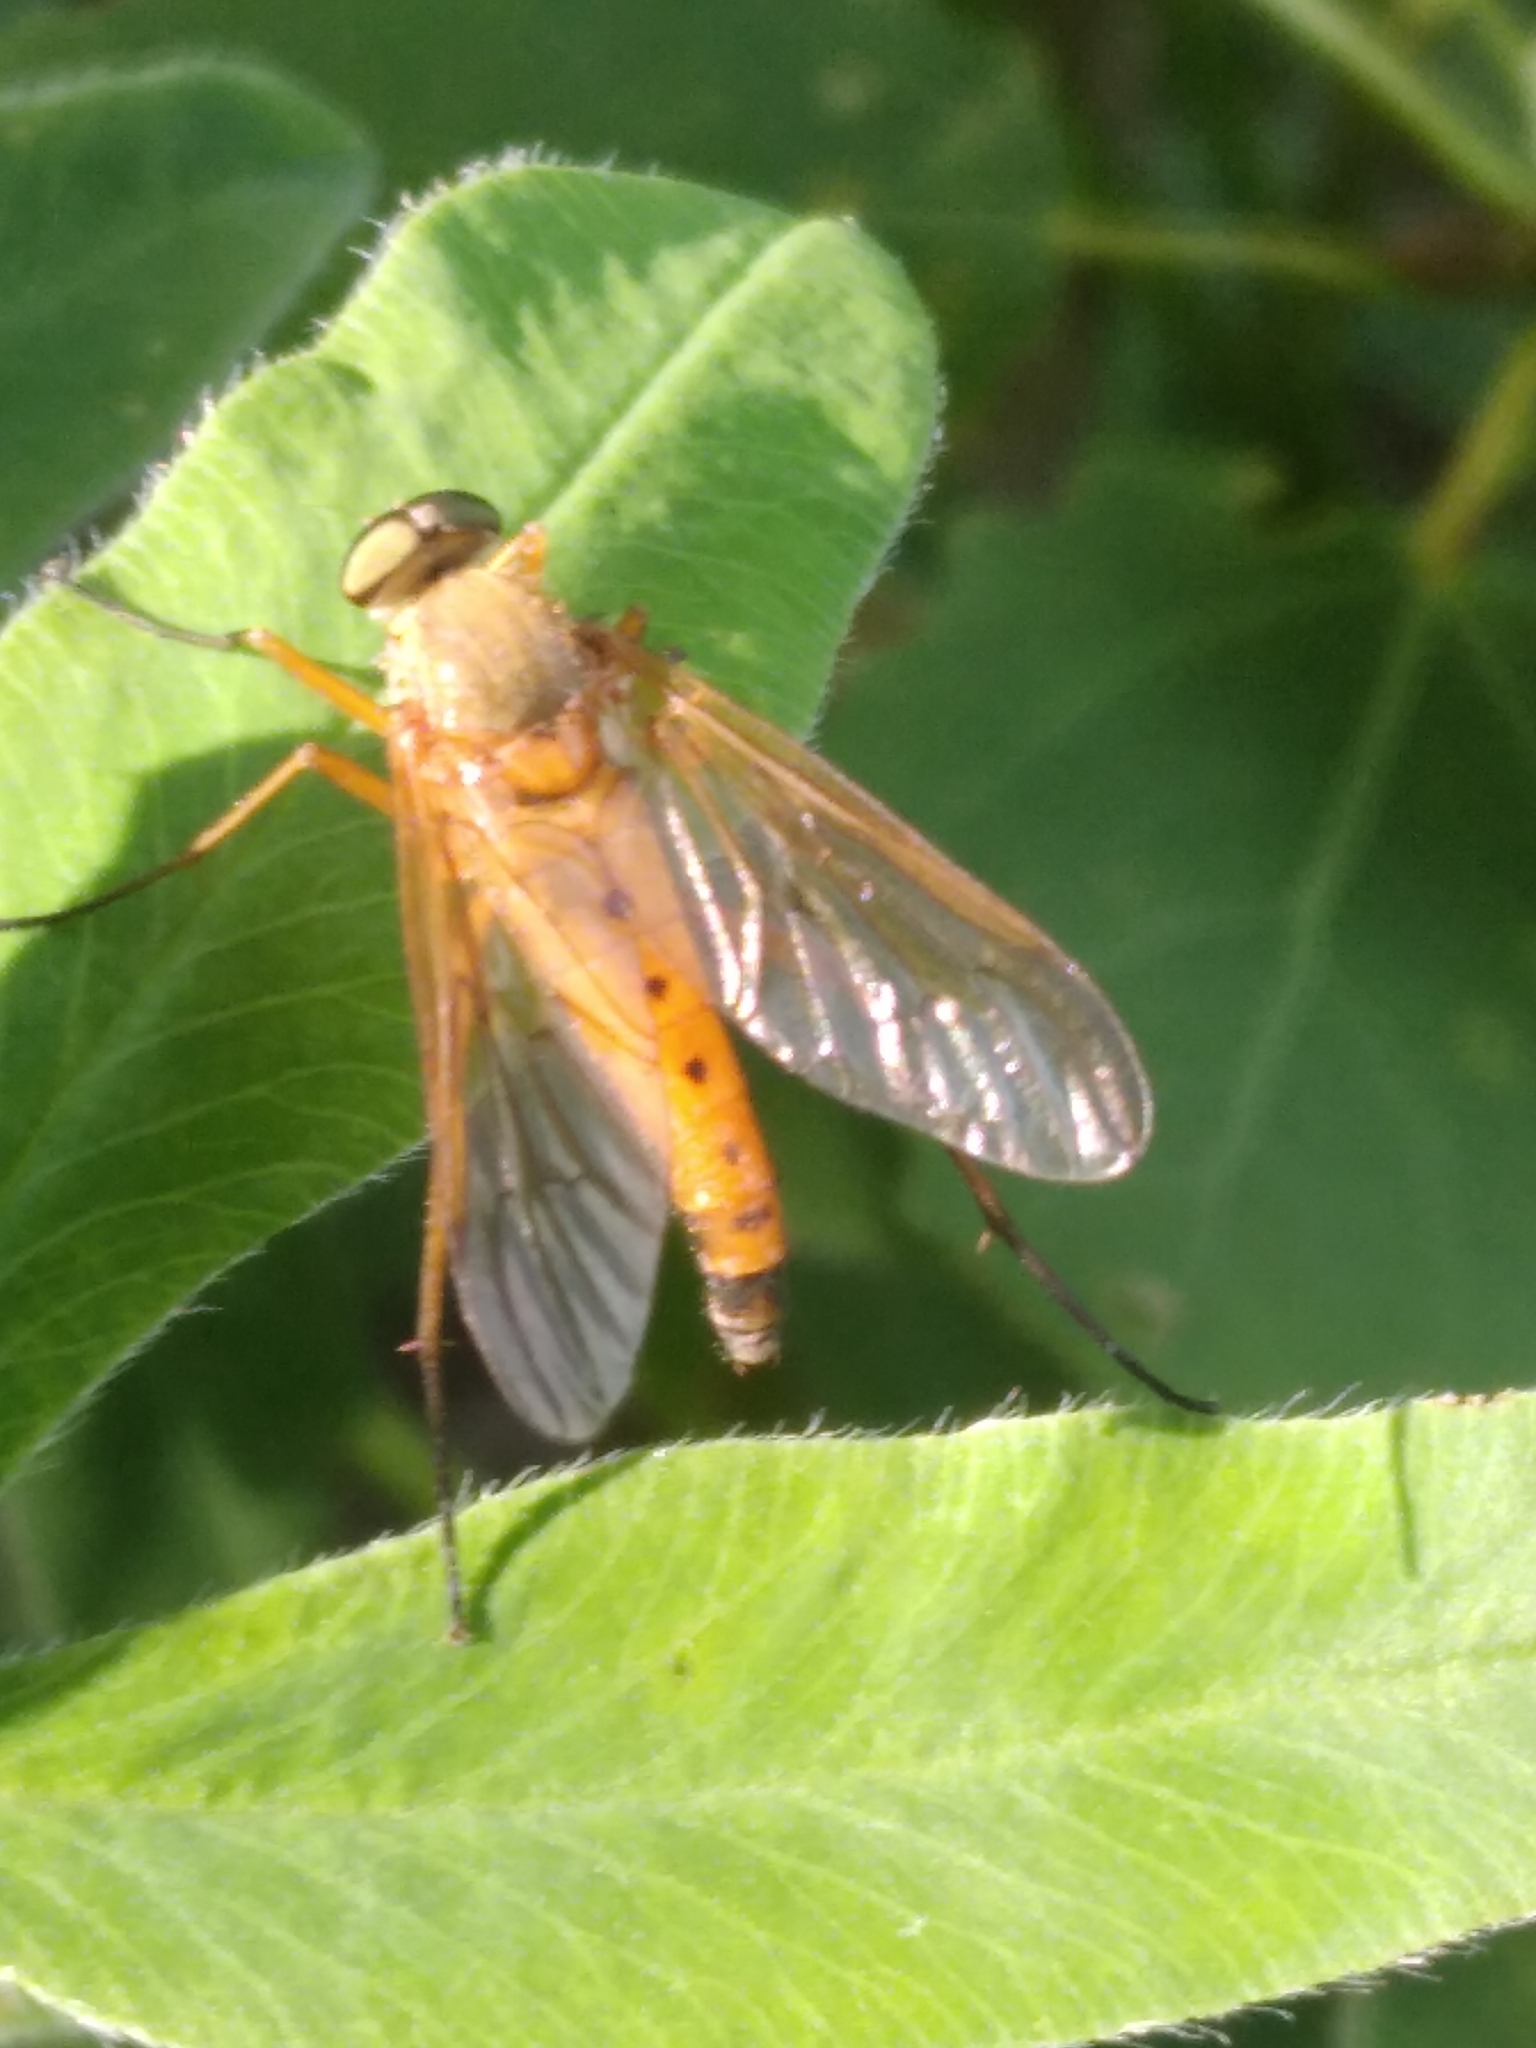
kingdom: Animalia
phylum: Arthropoda
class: Insecta
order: Diptera
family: Rhagionidae
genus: Rhagio
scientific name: Rhagio tringaria
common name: Marsh snipefly
